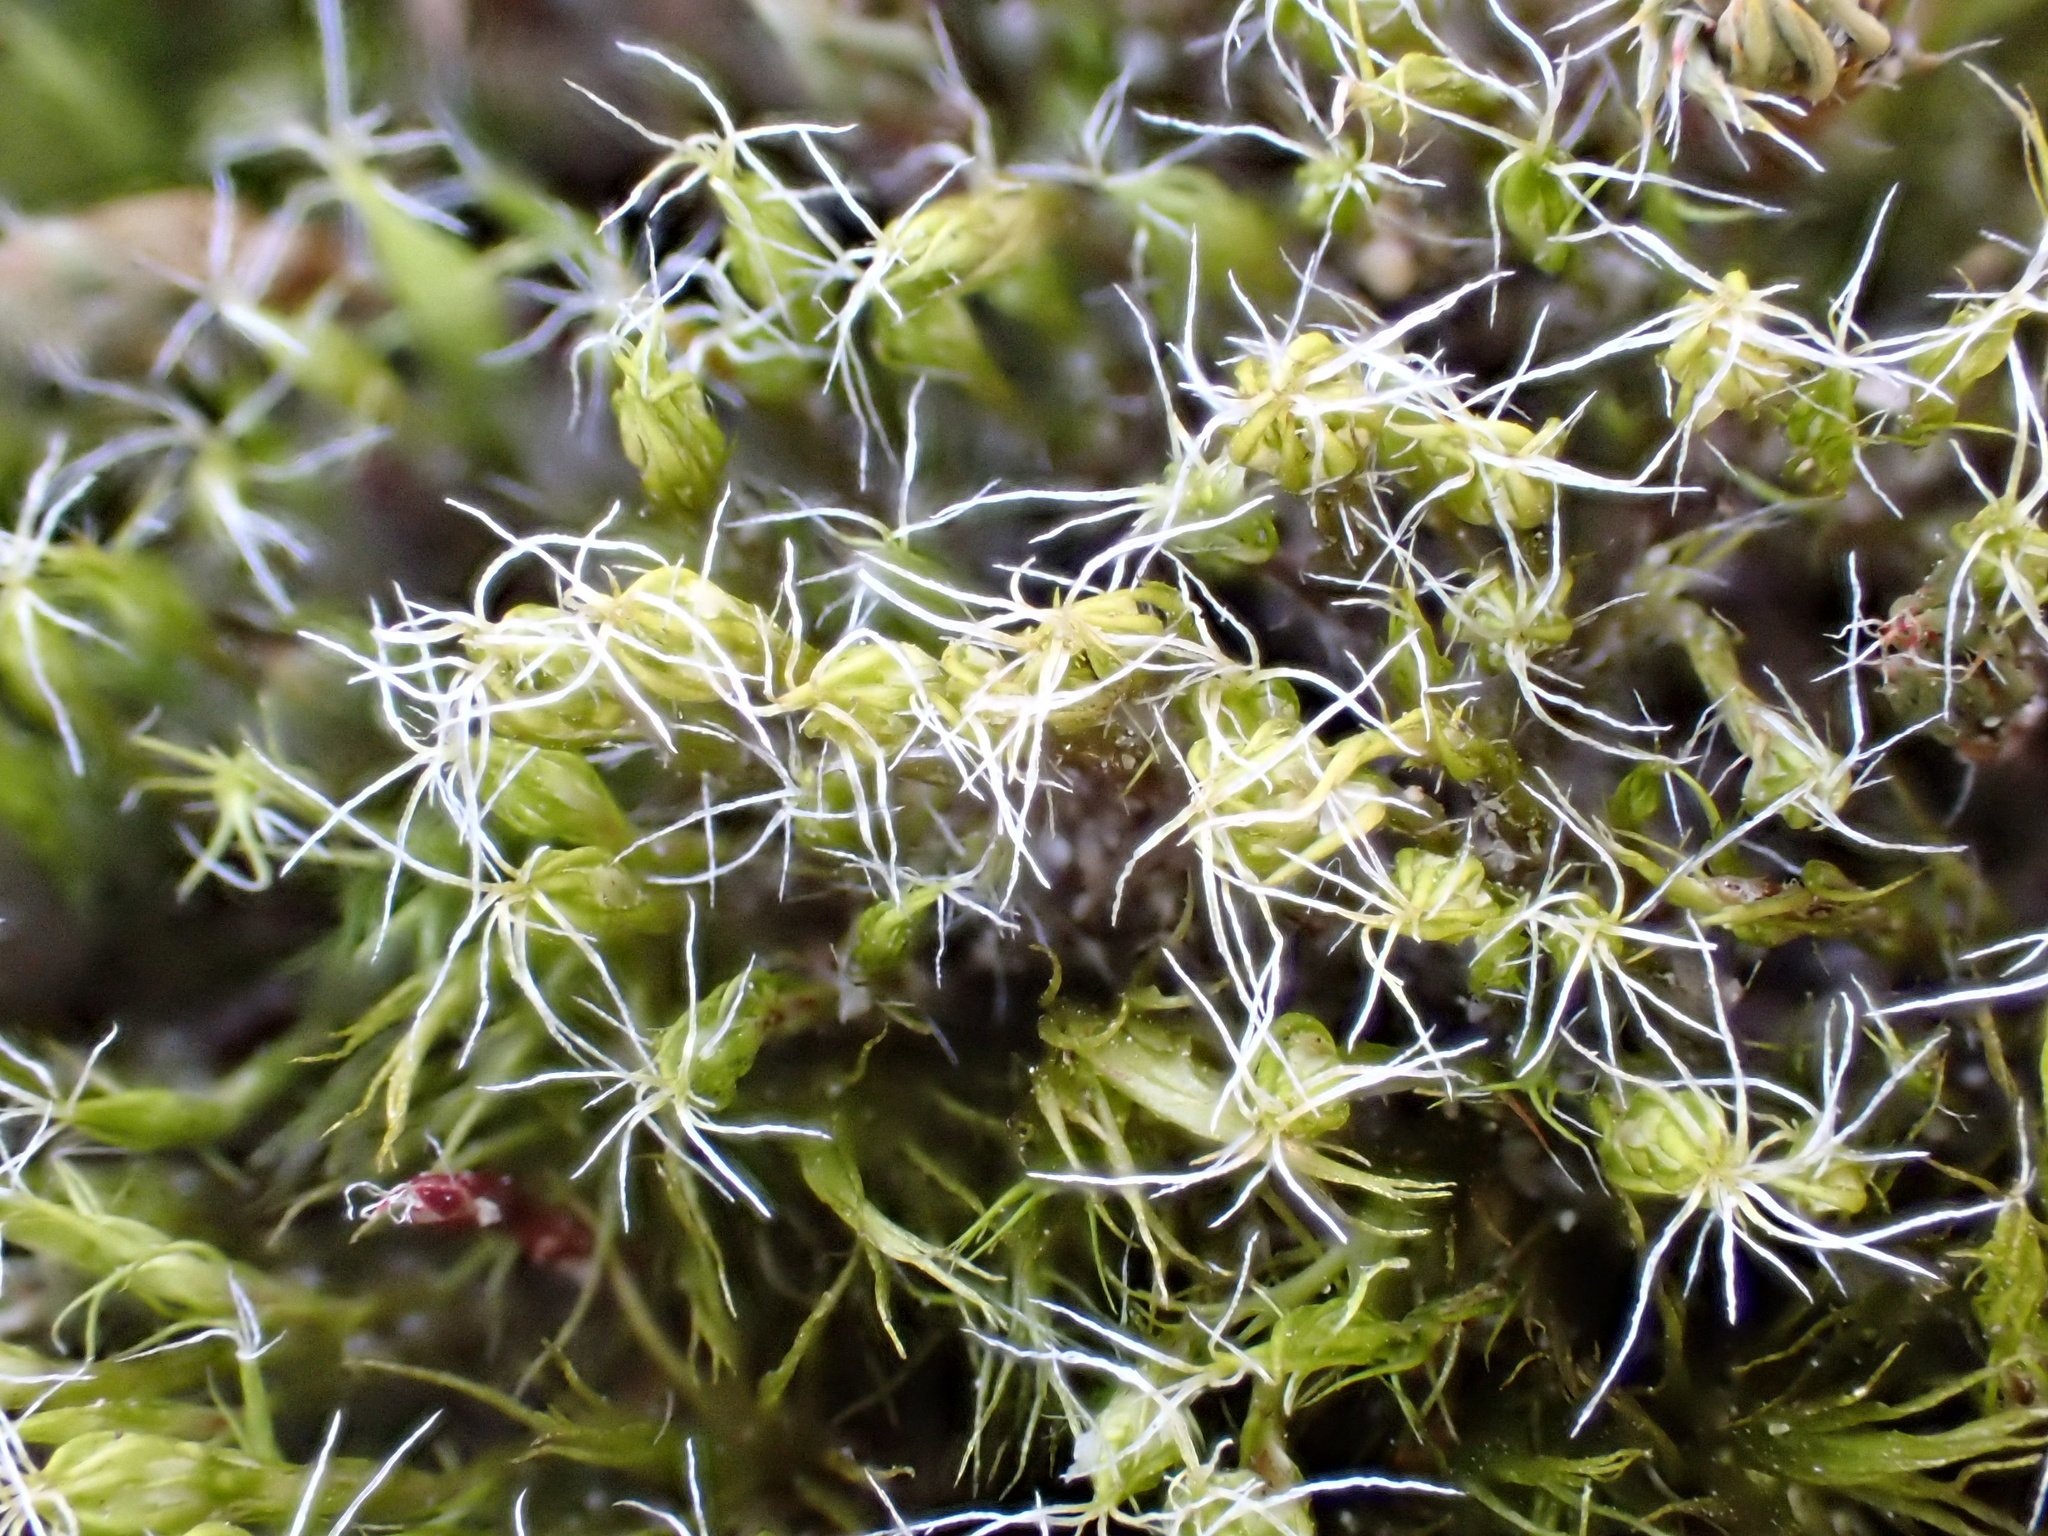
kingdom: Plantae
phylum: Bryophyta
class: Bryopsida
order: Dicranales
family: Leucobryaceae
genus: Campylopus
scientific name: Campylopus introflexus
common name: Heath star moss
